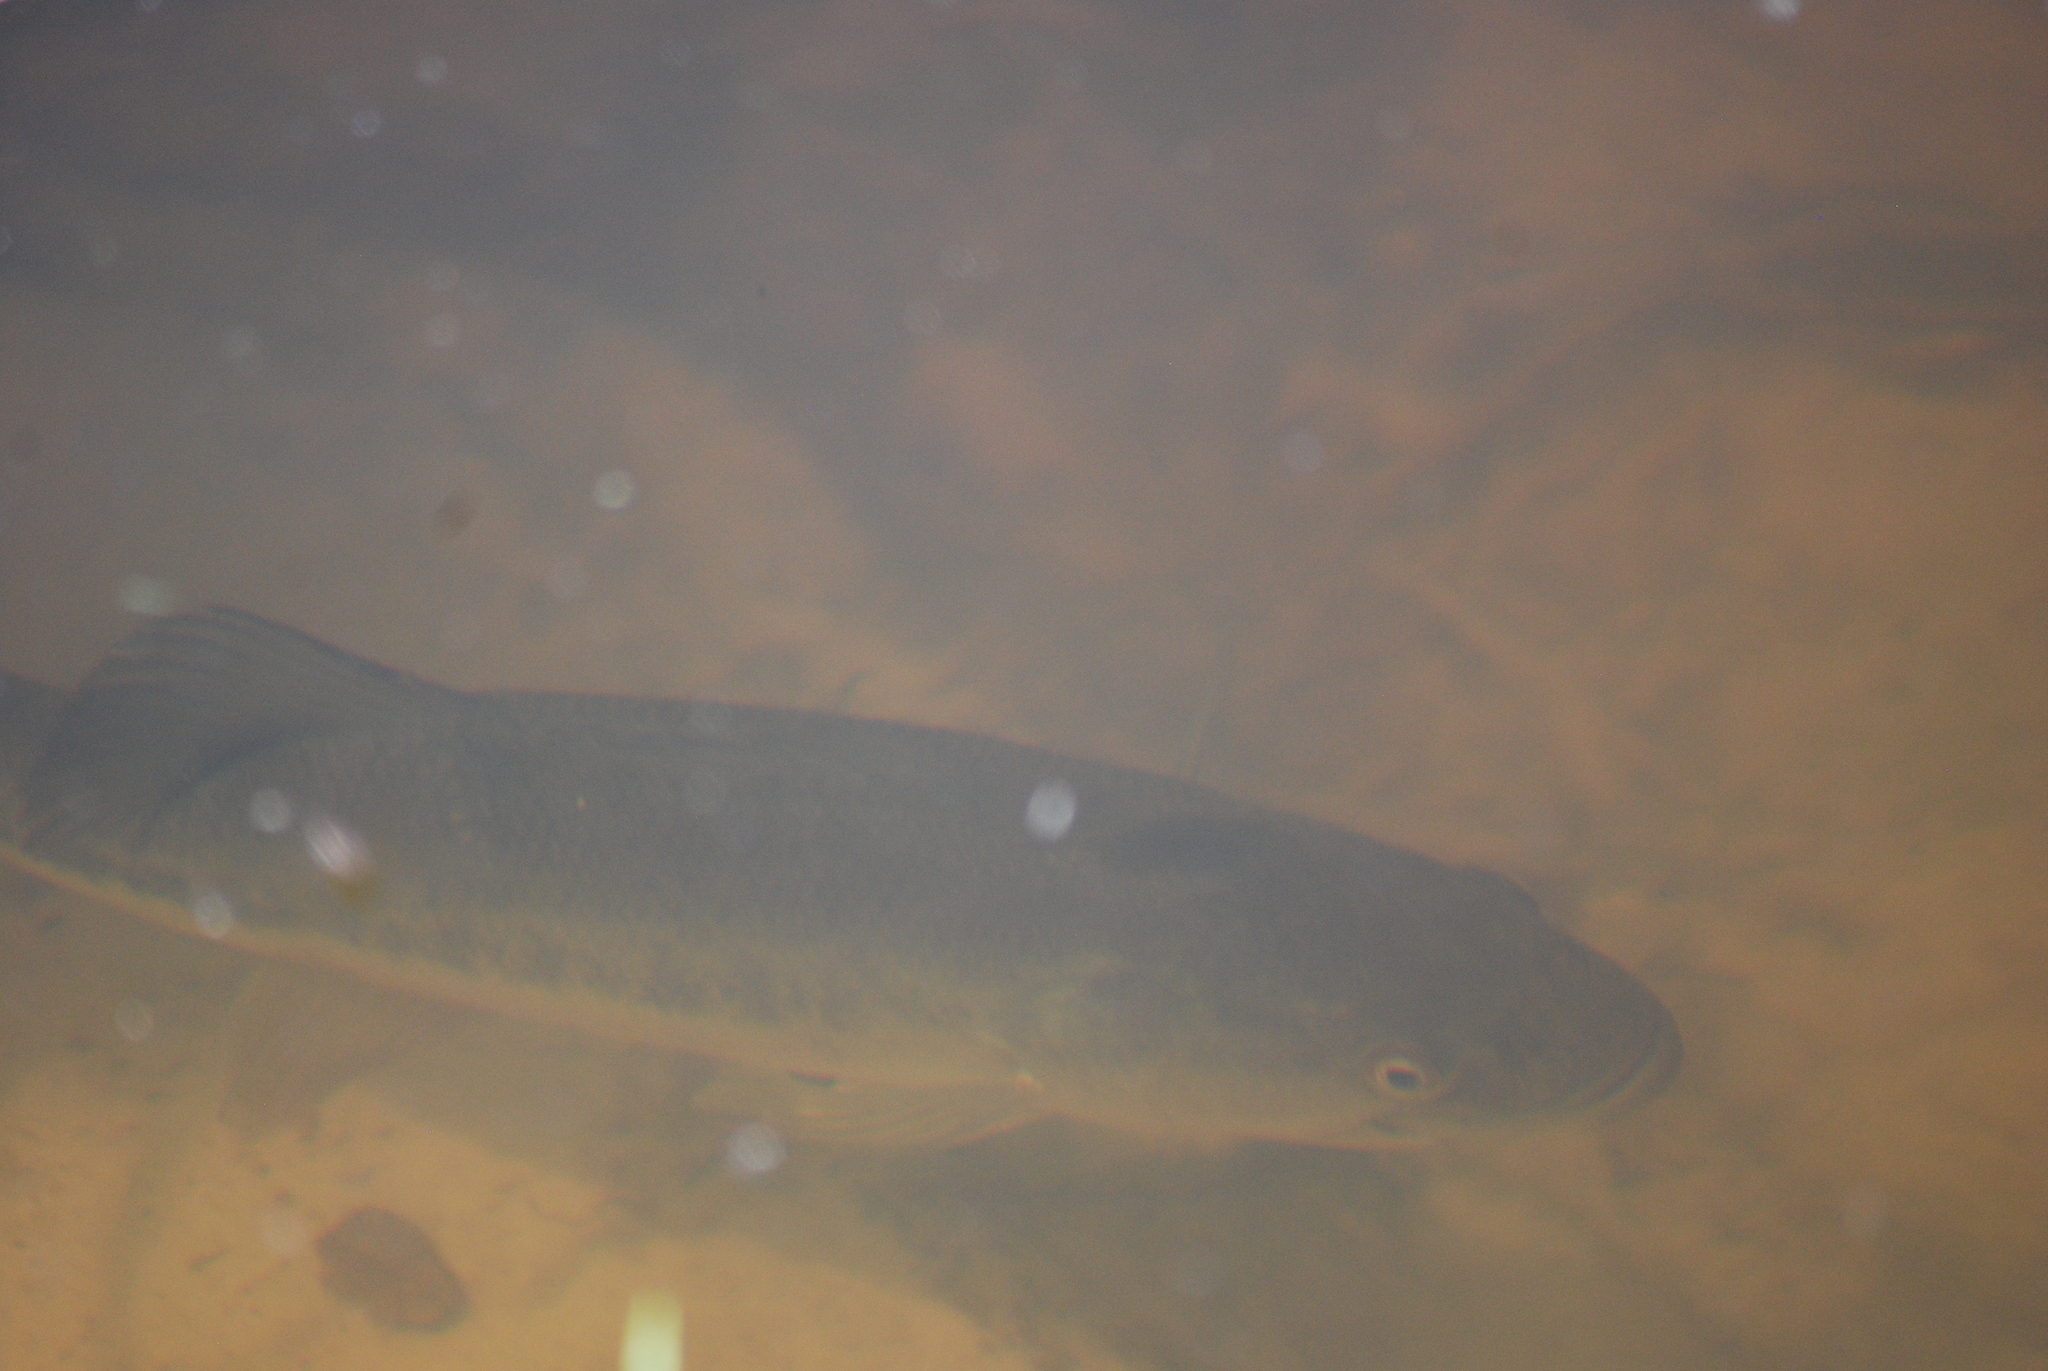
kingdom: Animalia
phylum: Chordata
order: Perciformes
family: Centrarchidae
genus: Micropterus
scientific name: Micropterus
